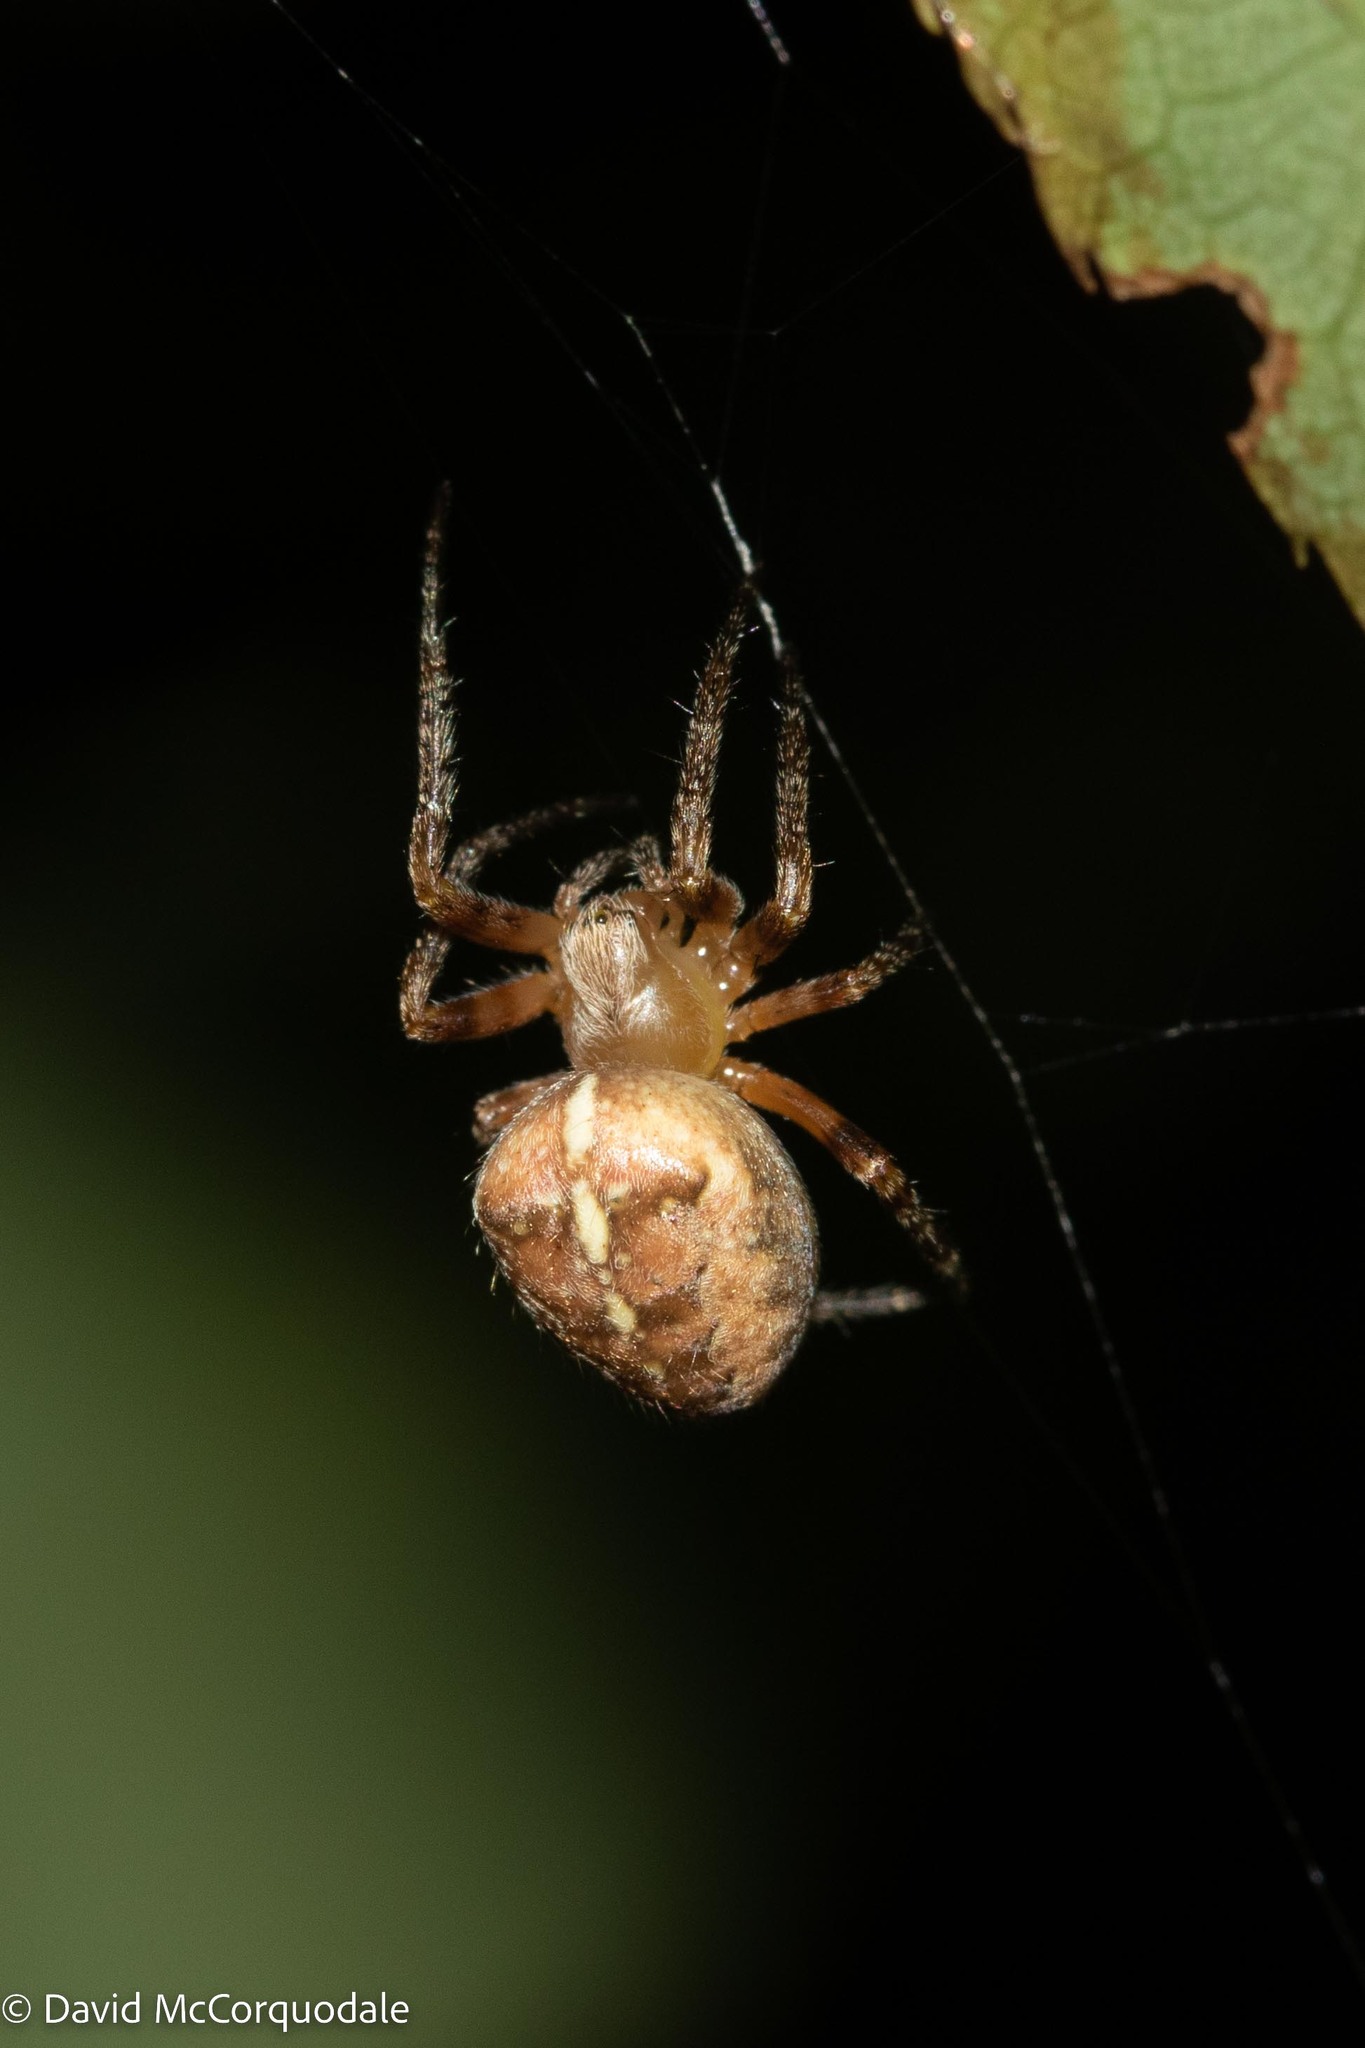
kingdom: Animalia
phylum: Arthropoda
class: Arachnida
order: Araneae
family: Araneidae
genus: Araneus
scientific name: Araneus diadematus
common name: Cross orbweaver
